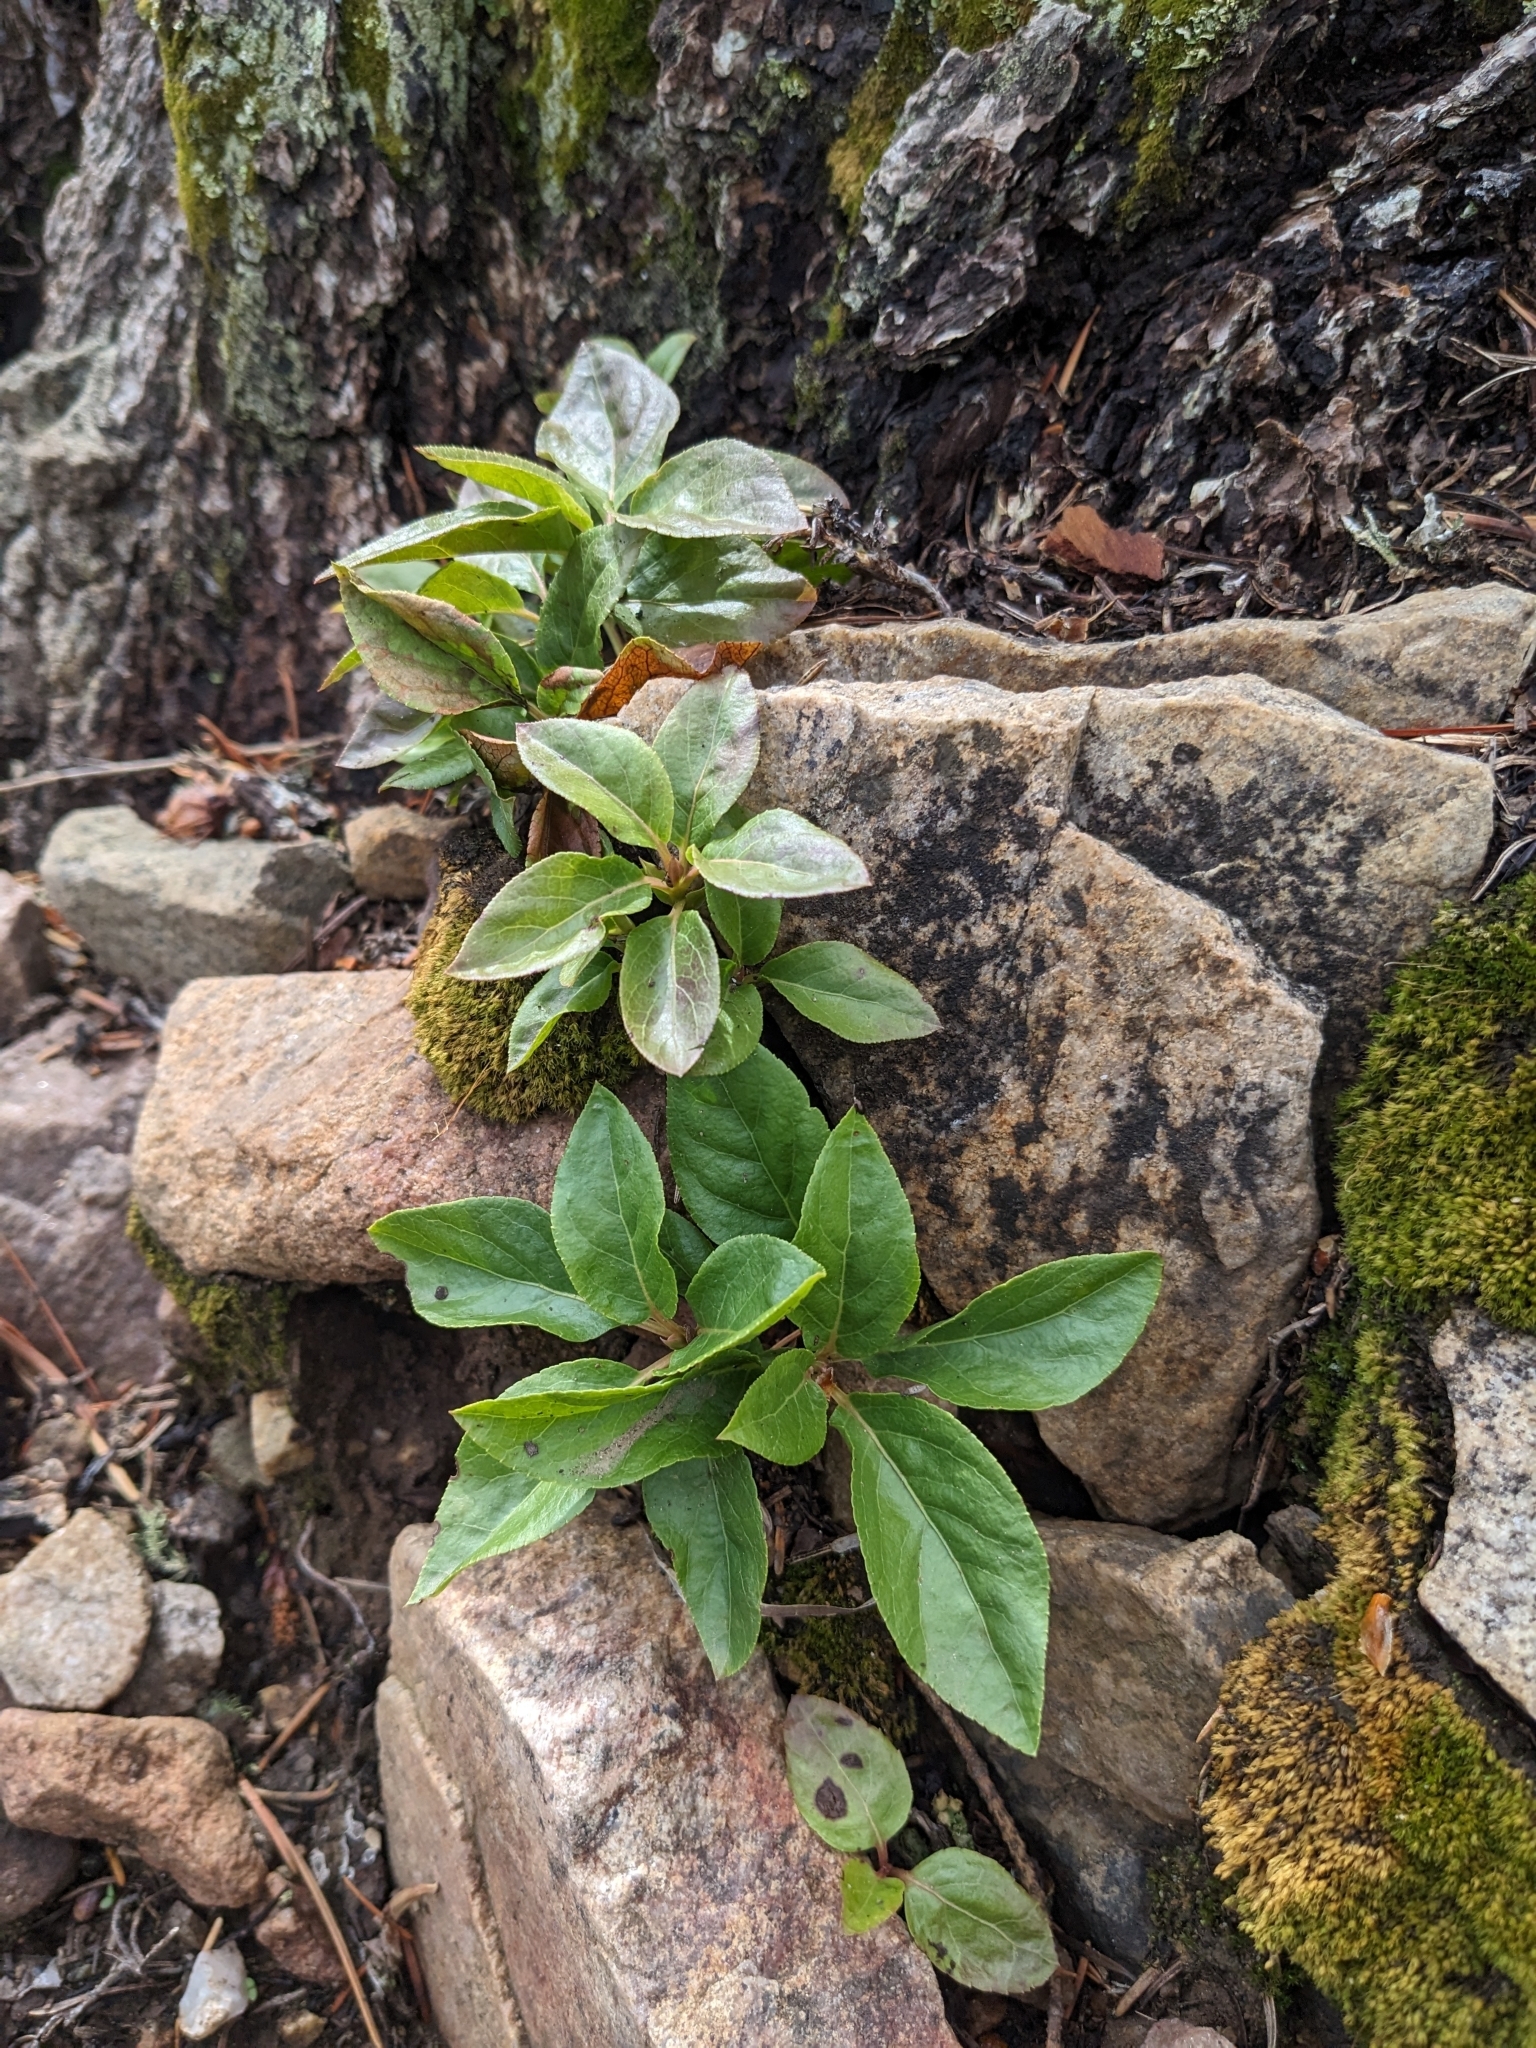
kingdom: Plantae
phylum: Tracheophyta
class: Magnoliopsida
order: Ericales
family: Ericaceae
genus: Orthilia
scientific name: Orthilia secunda
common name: One-sided orthilia
